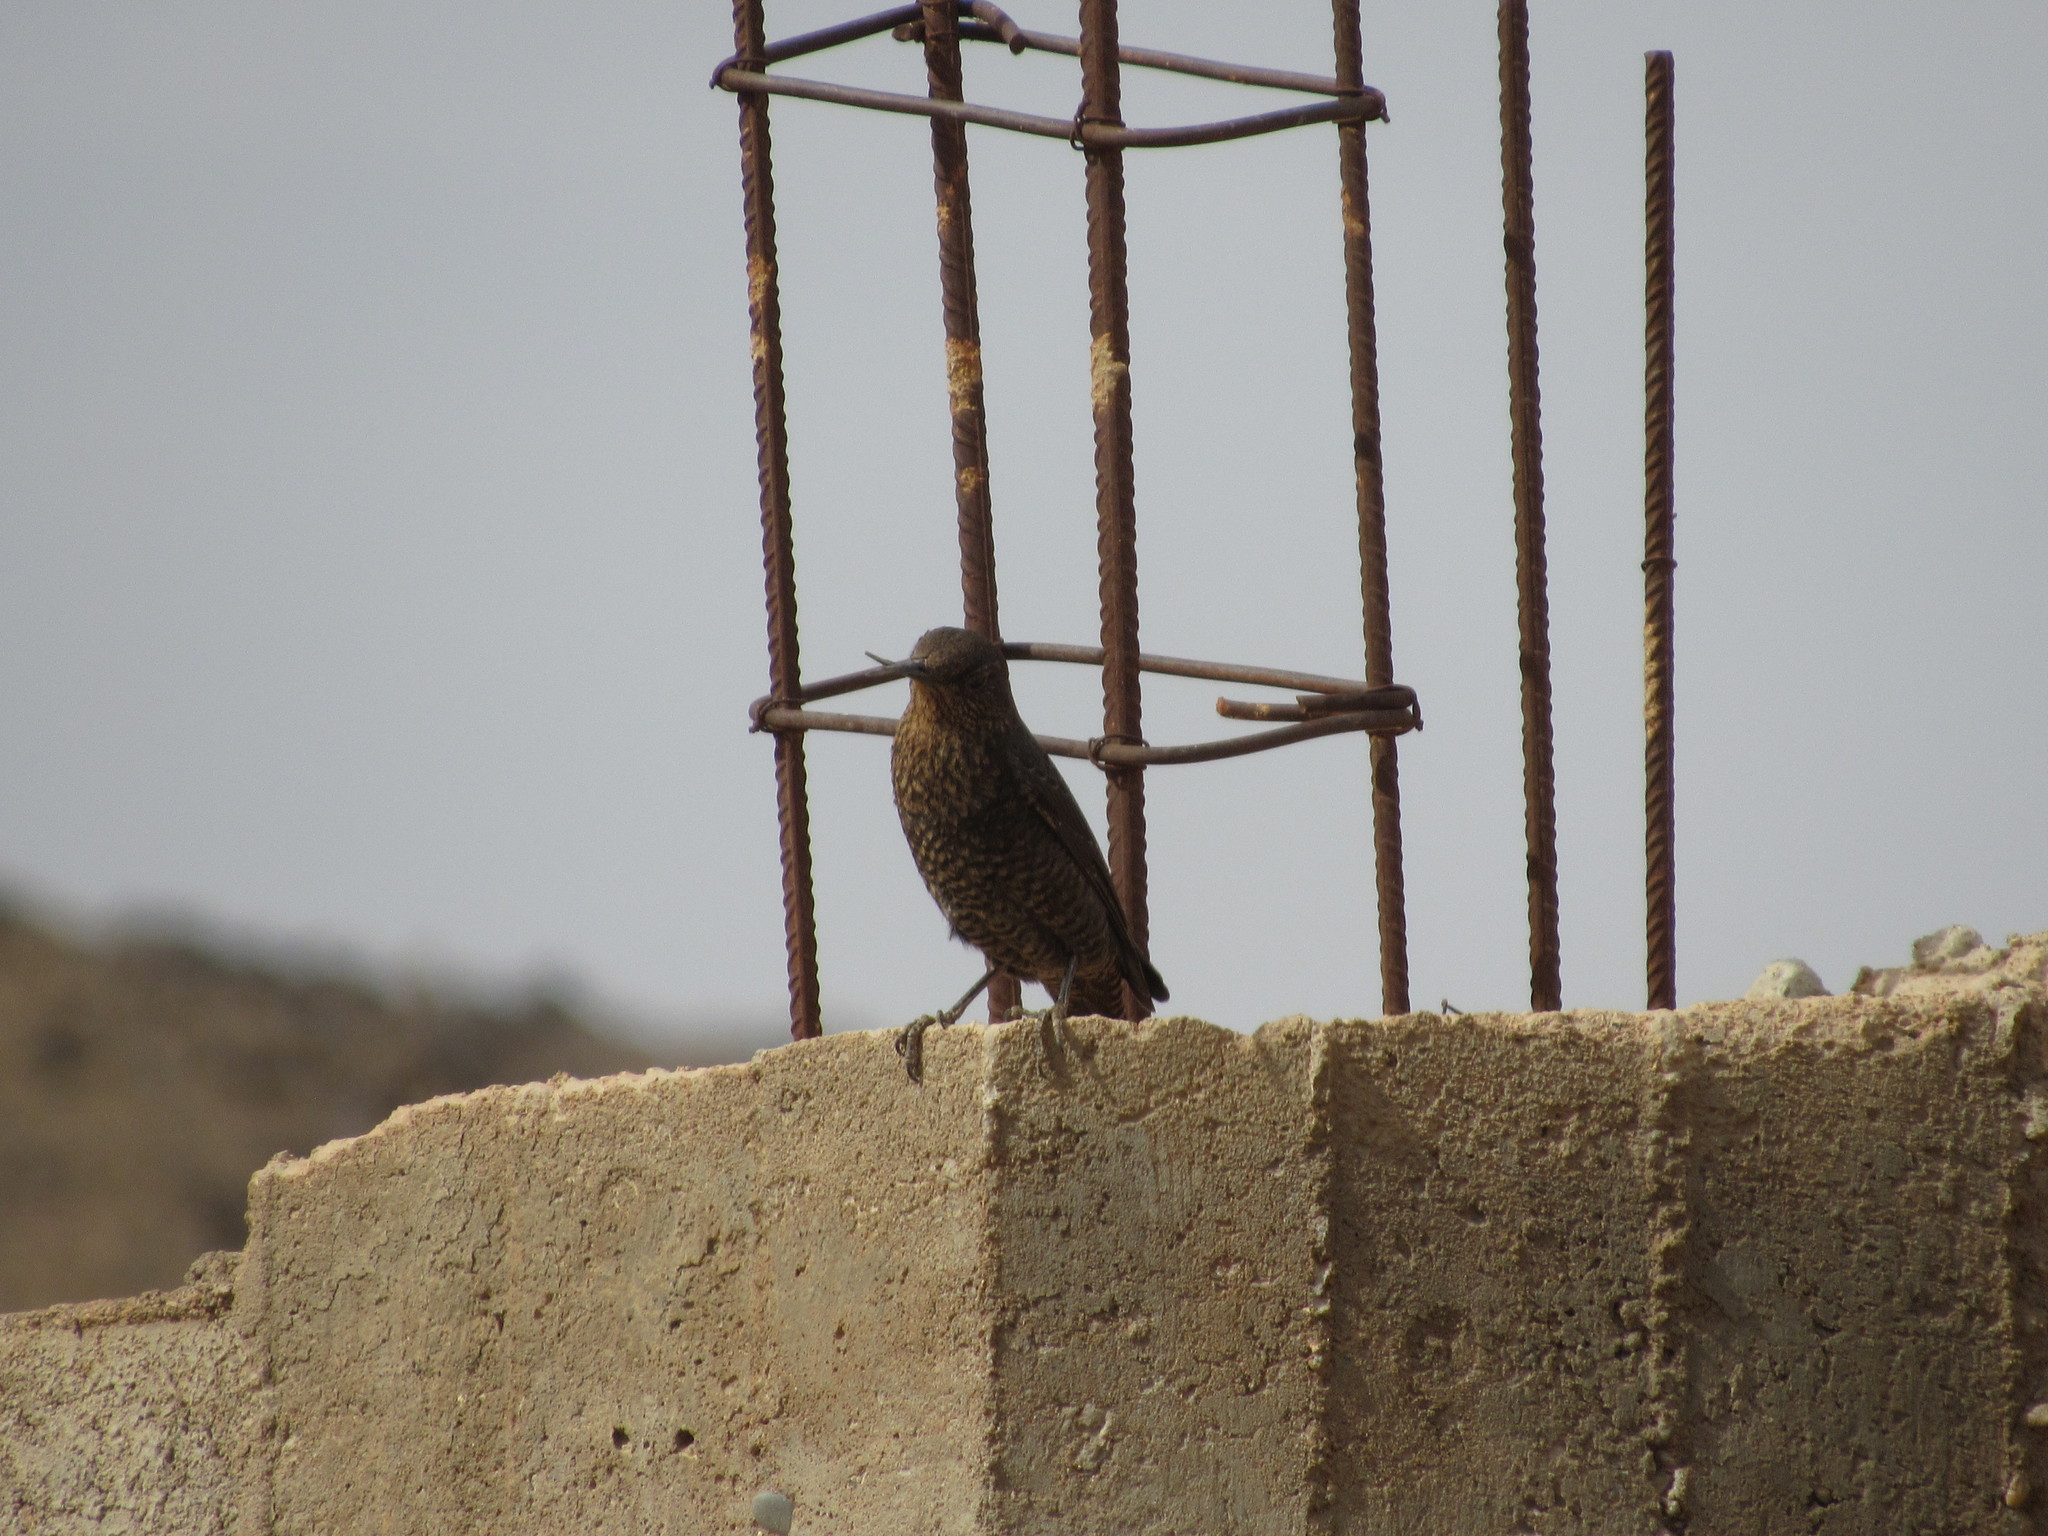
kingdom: Animalia
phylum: Chordata
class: Aves
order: Passeriformes
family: Muscicapidae
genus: Monticola
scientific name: Monticola solitarius
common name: Blue rock thrush
